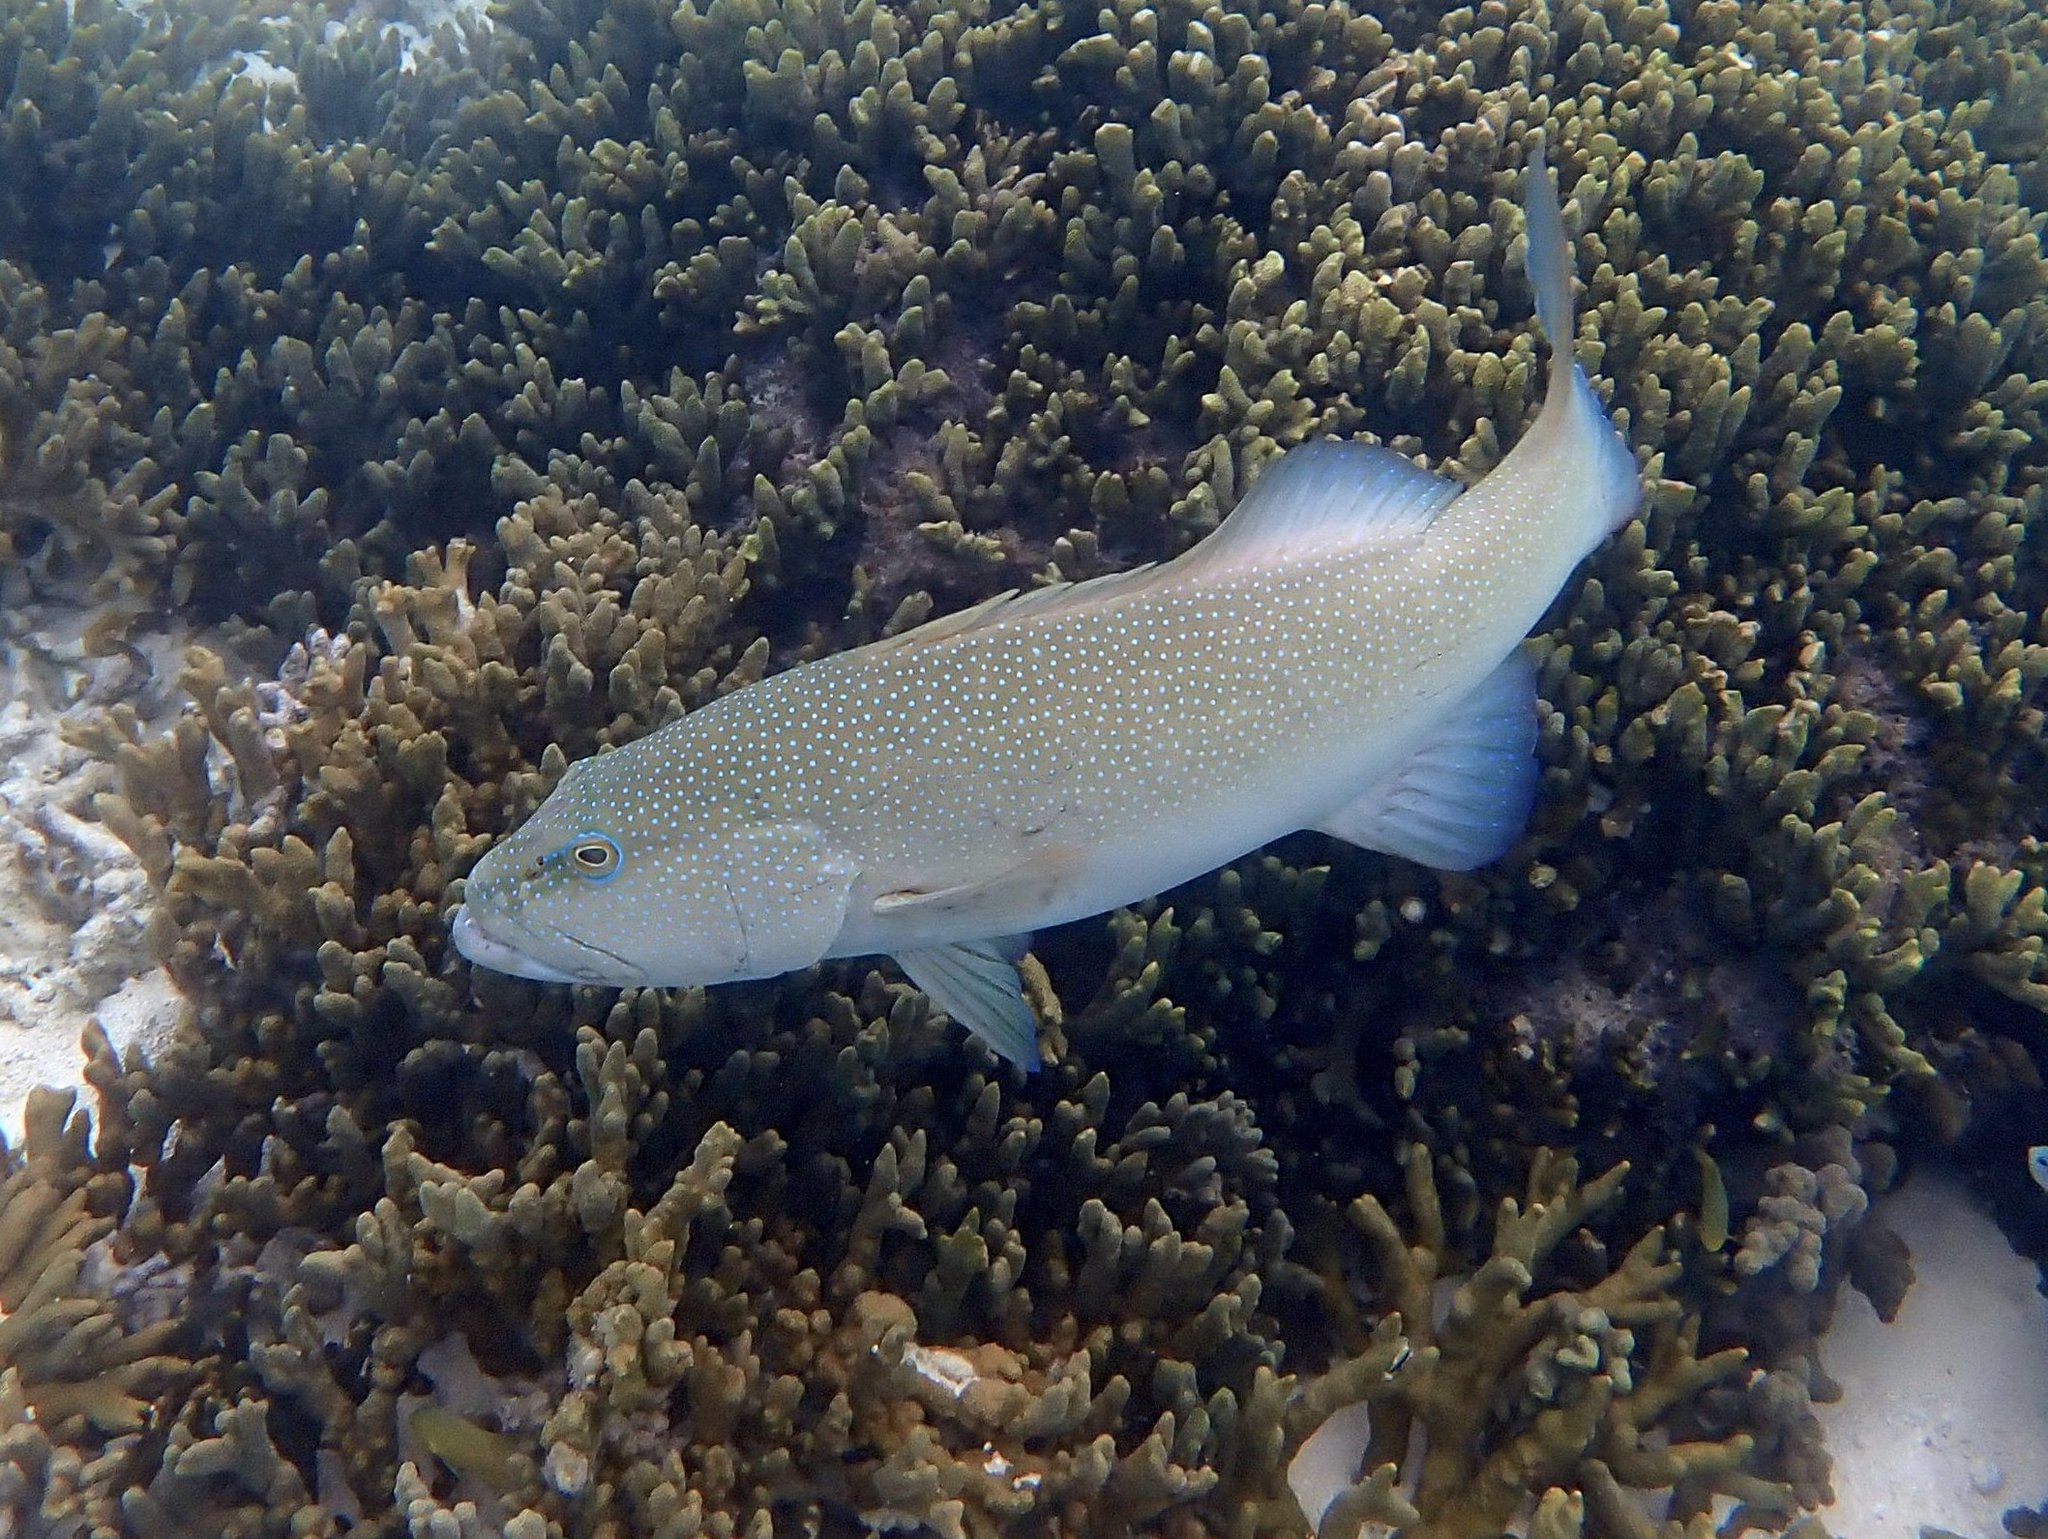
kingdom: Animalia
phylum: Chordata
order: Perciformes
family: Serranidae
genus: Plectropomus
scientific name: Plectropomus leopardus
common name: Coral trout
